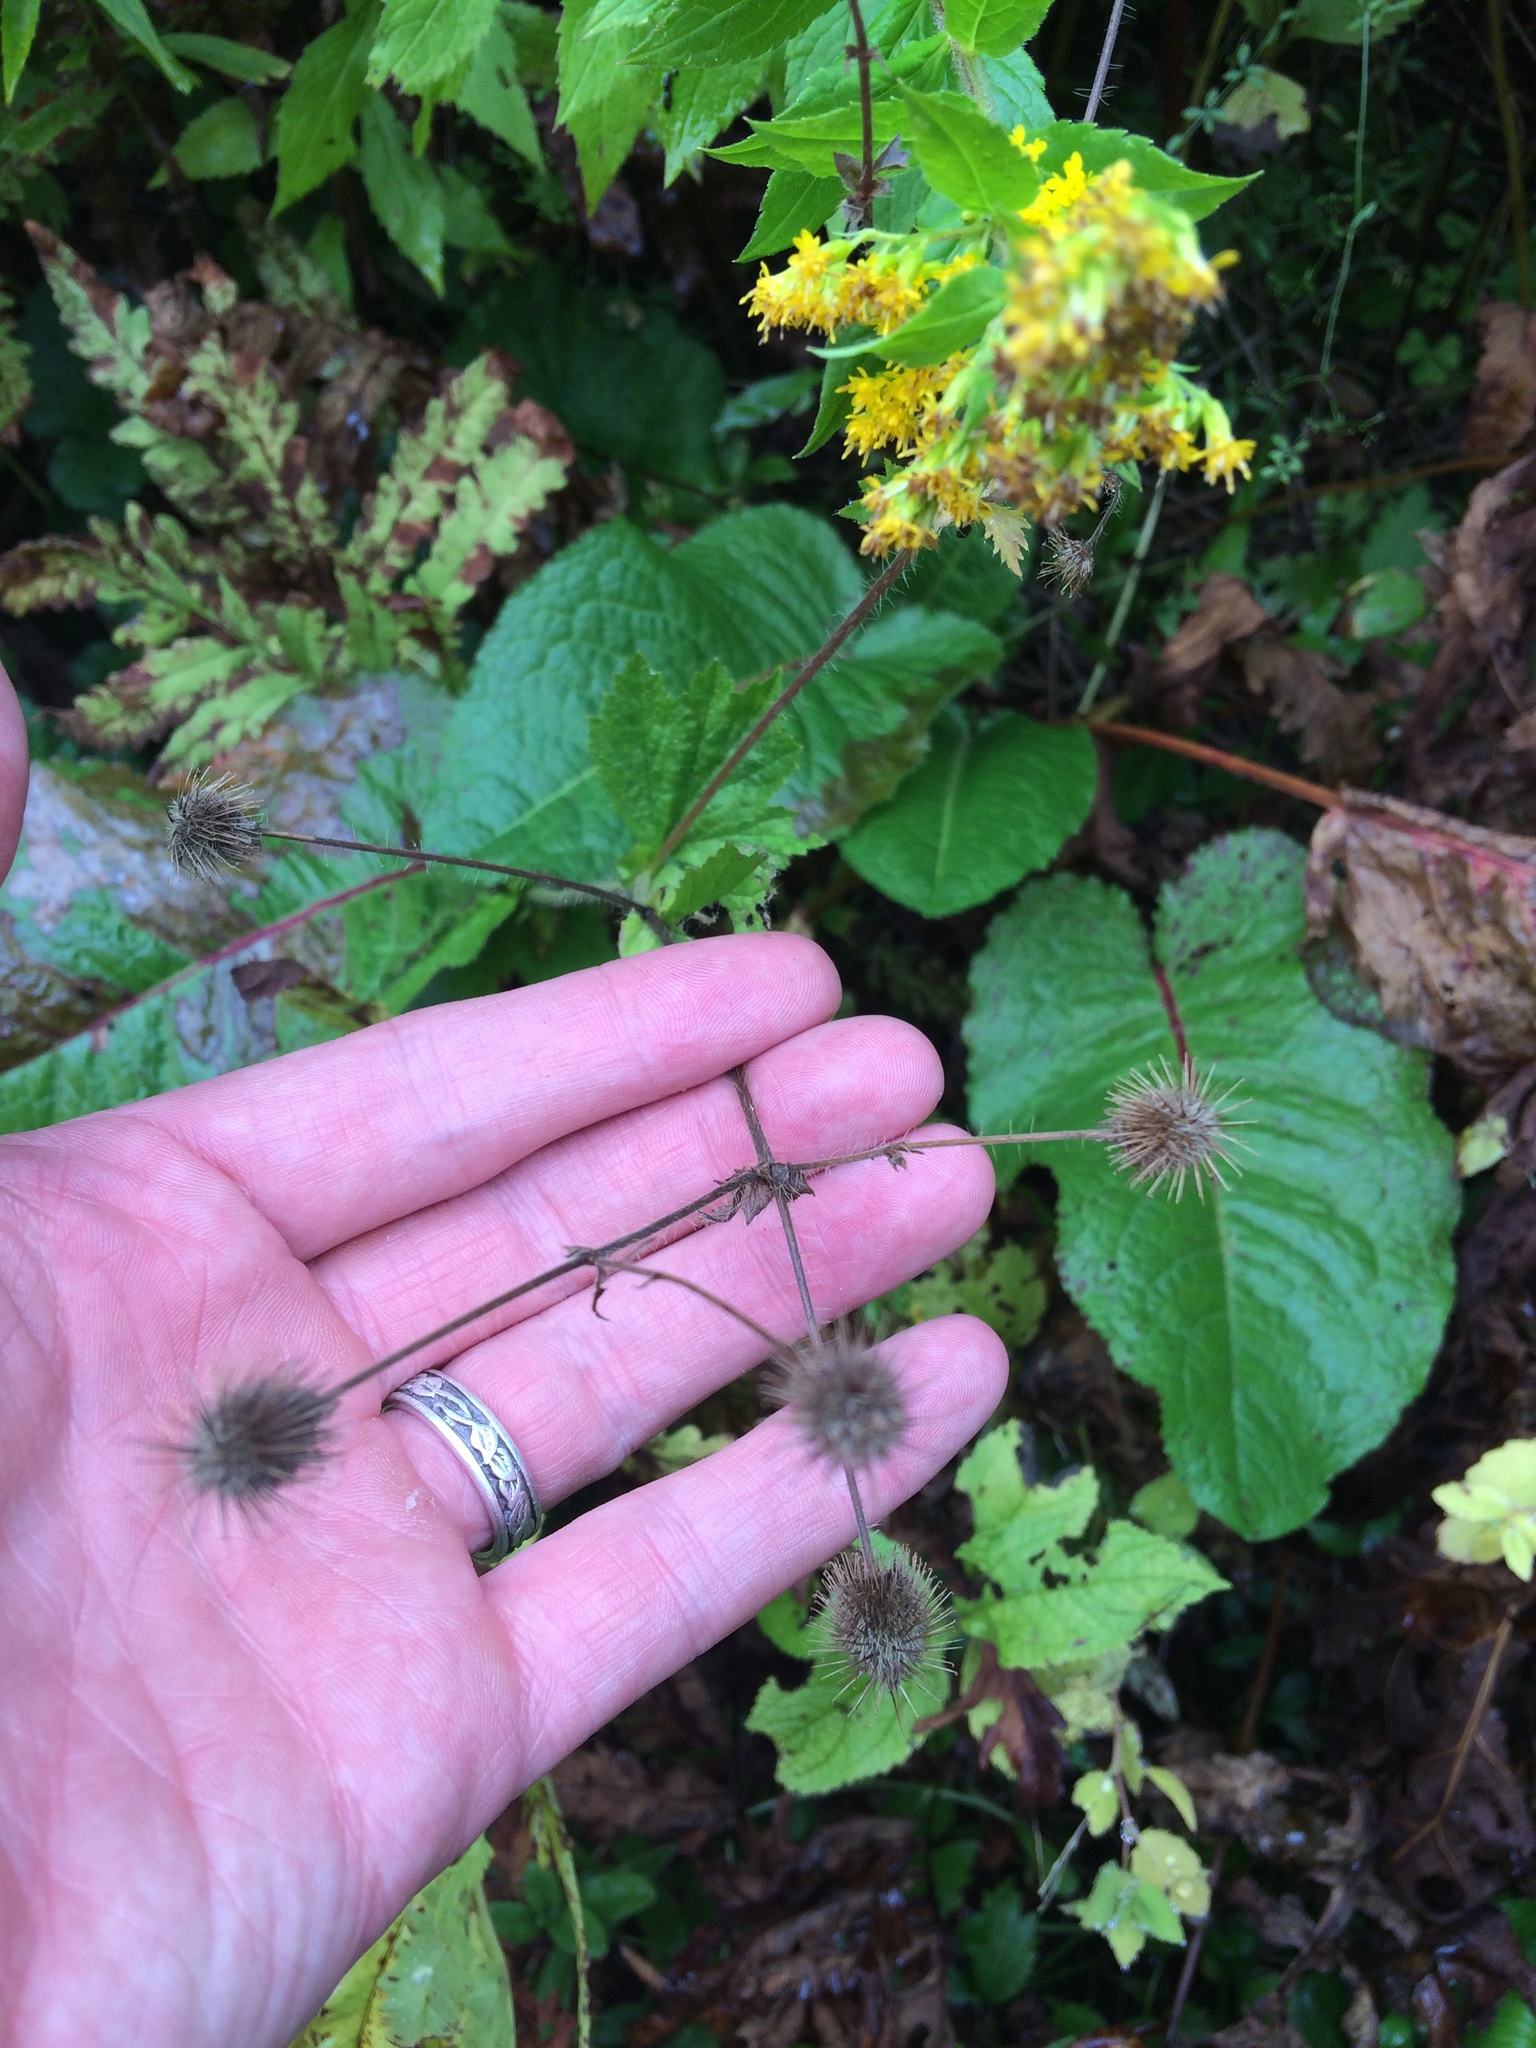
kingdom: Plantae
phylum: Tracheophyta
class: Magnoliopsida
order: Rosales
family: Rosaceae
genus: Geum
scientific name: Geum rivale
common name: Water avens
